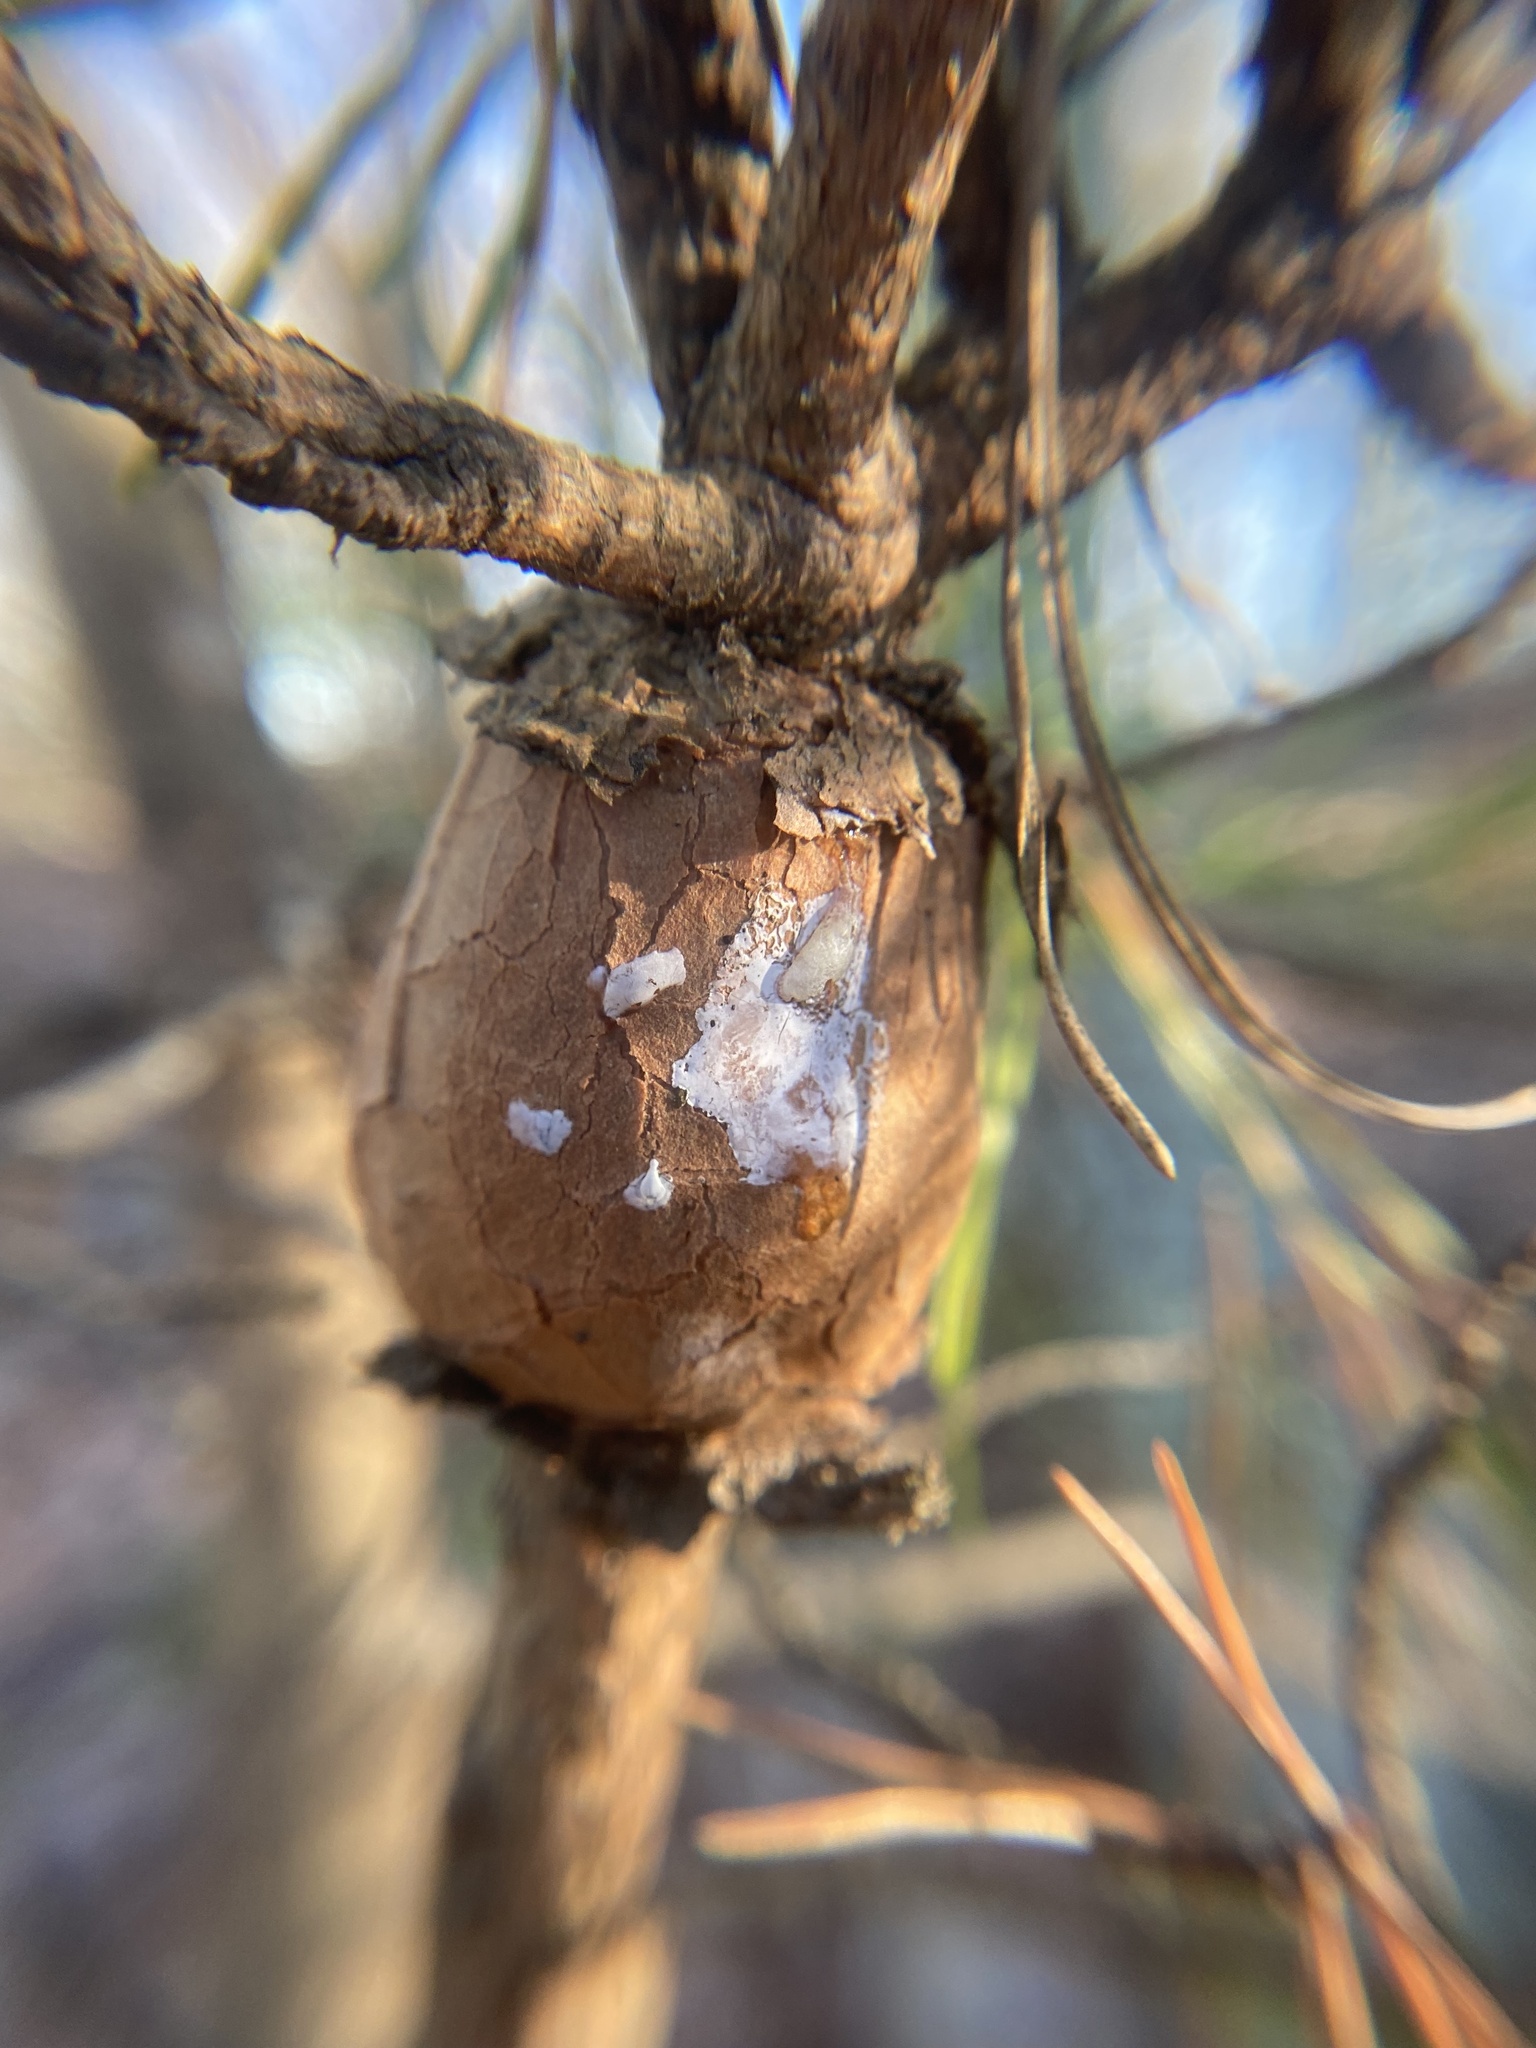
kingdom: Fungi
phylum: Basidiomycota
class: Pucciniomycetes
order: Pucciniales
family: Cronartiaceae
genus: Cronartium
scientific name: Cronartium quercuum
